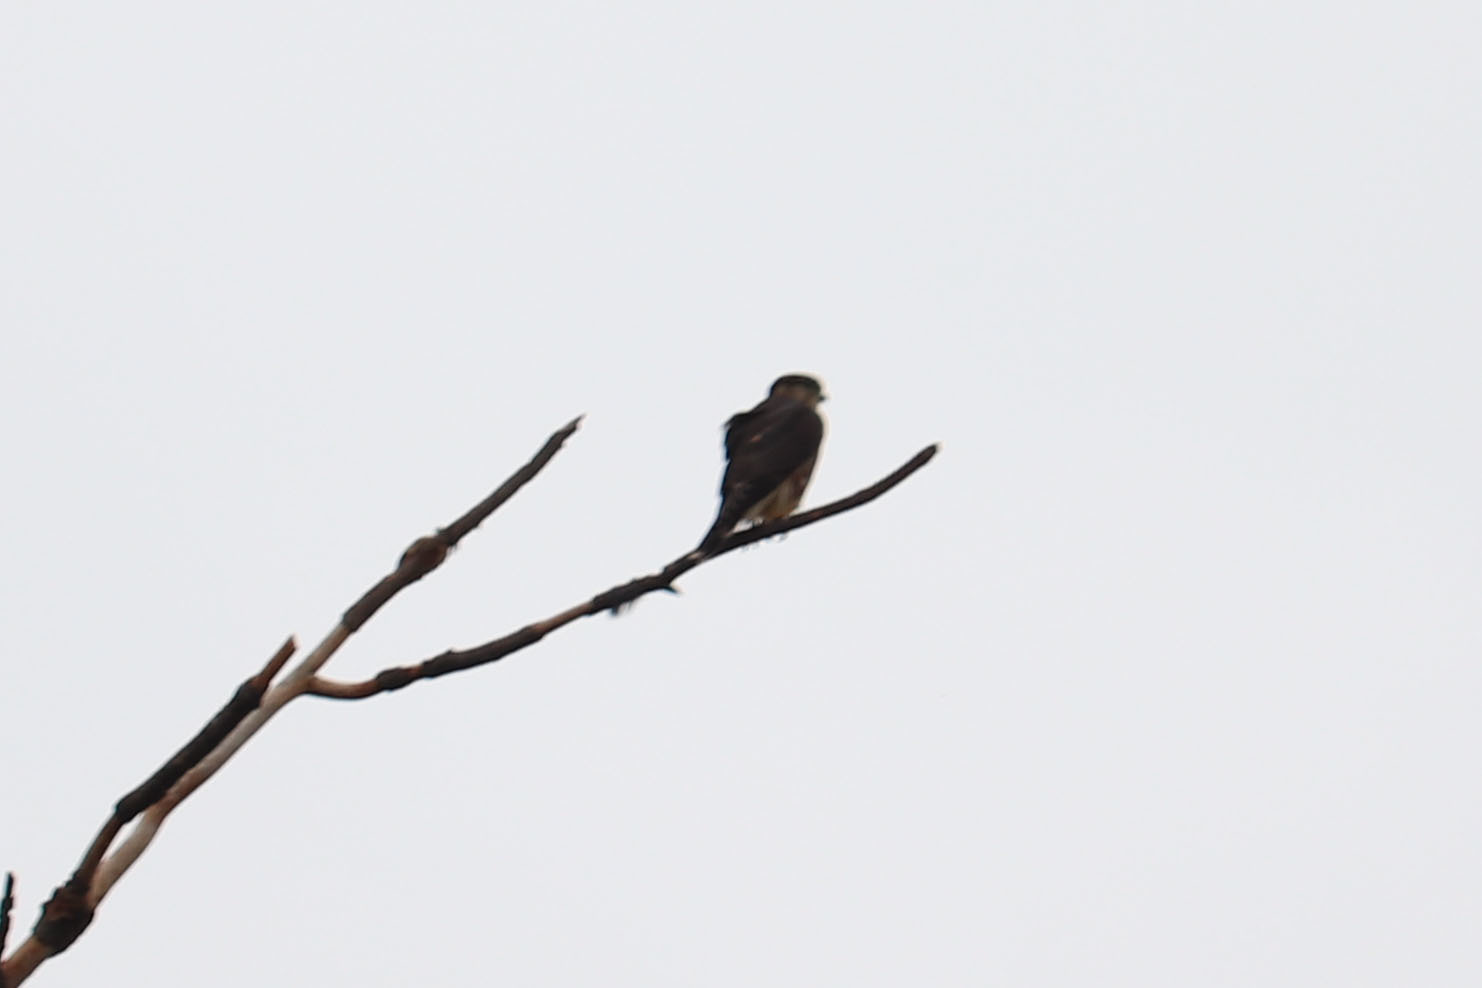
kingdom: Animalia
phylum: Chordata
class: Aves
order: Falconiformes
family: Falconidae
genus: Falco
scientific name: Falco columbarius
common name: Merlin
